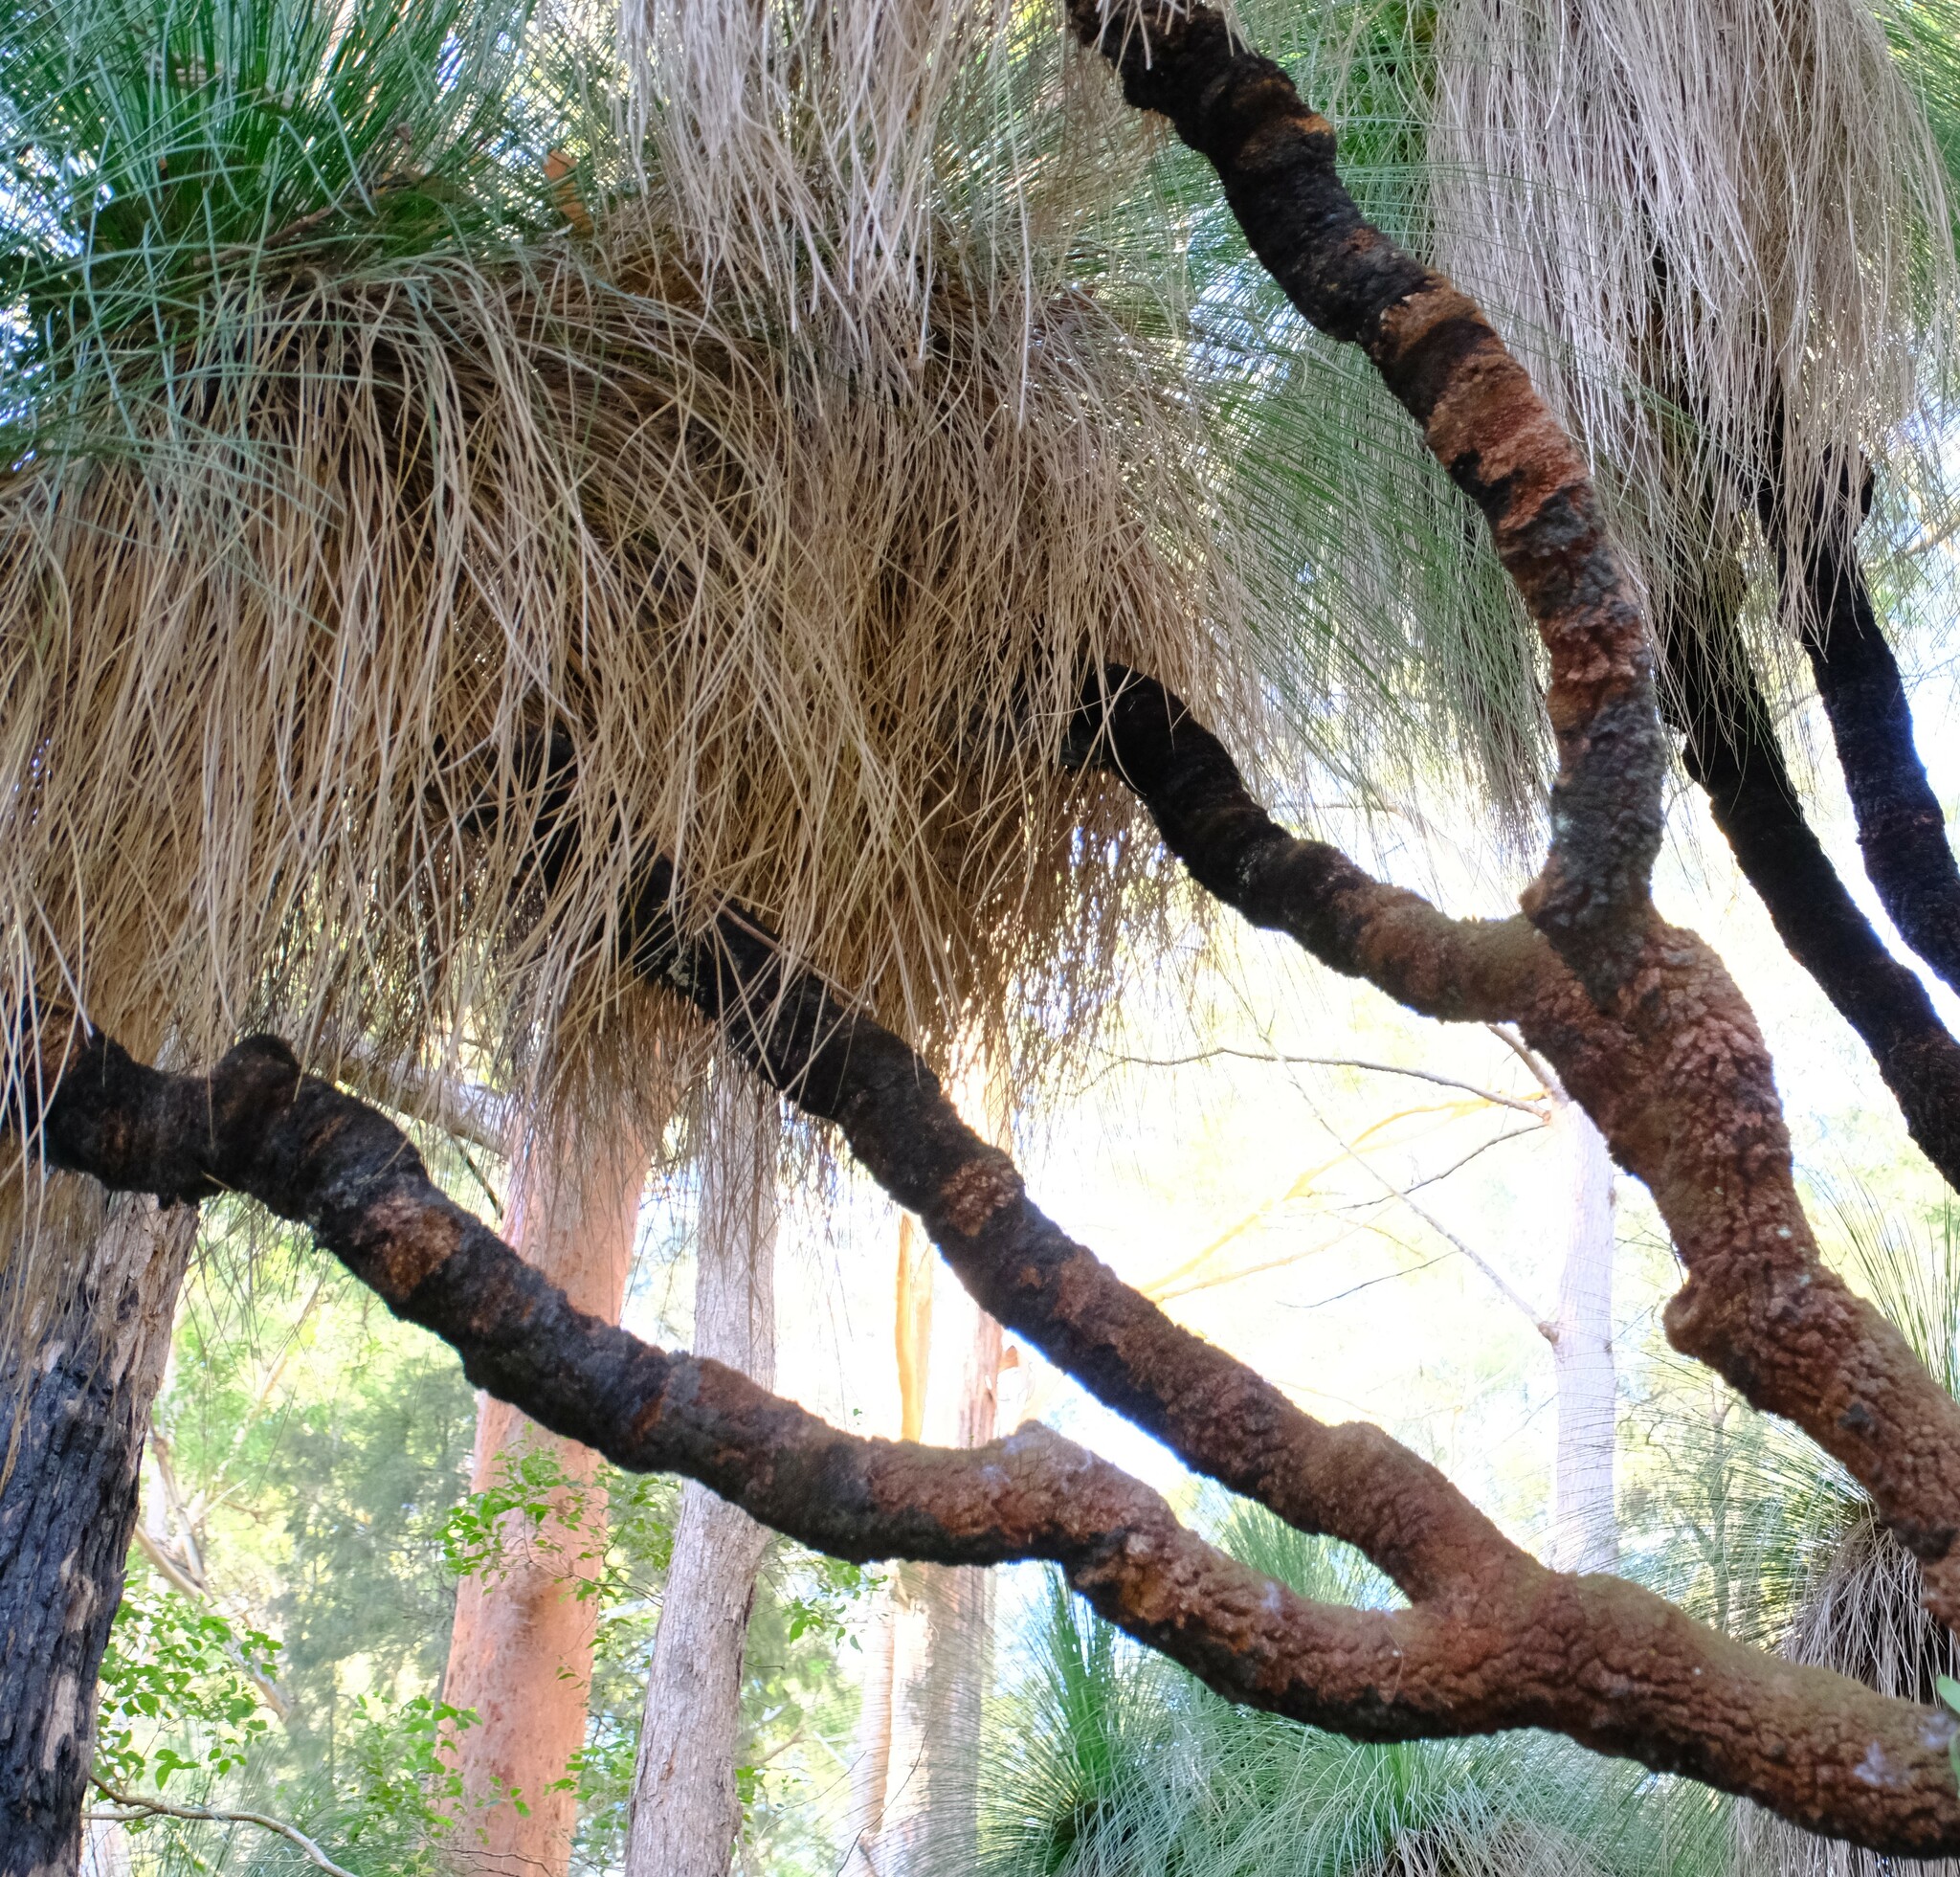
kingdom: Plantae
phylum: Tracheophyta
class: Liliopsida
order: Asparagales
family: Asphodelaceae
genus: Xanthorrhoea
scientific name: Xanthorrhoea malacophylla
